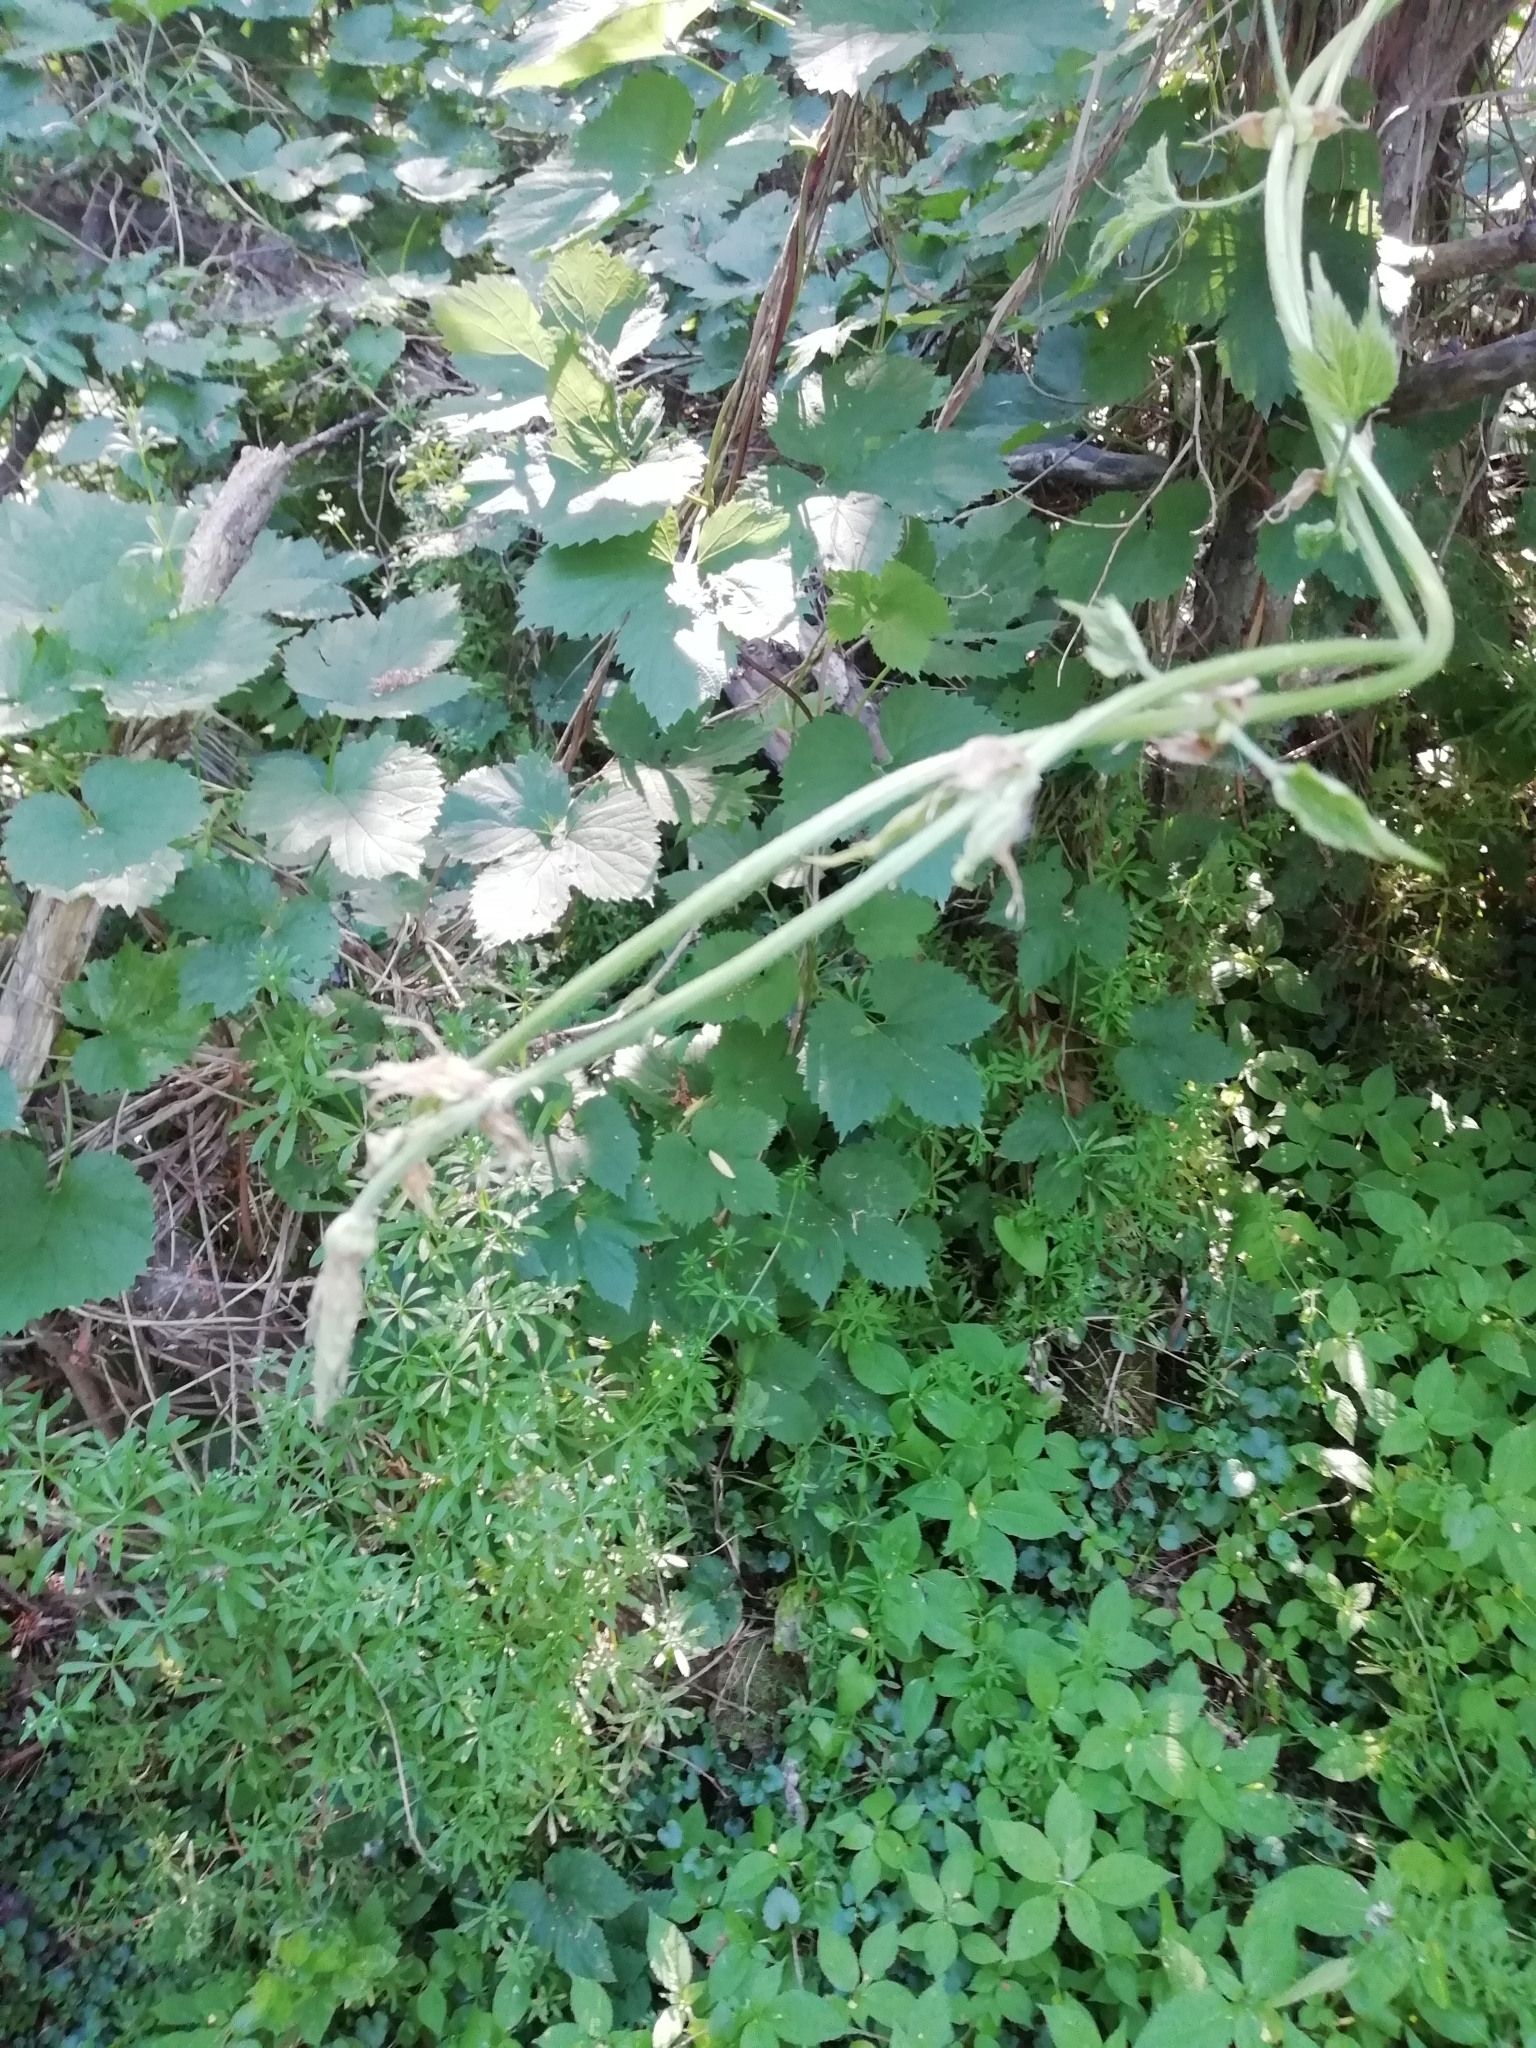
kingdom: Plantae
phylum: Tracheophyta
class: Magnoliopsida
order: Rosales
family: Cannabaceae
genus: Humulus
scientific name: Humulus lupulus
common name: Hop
